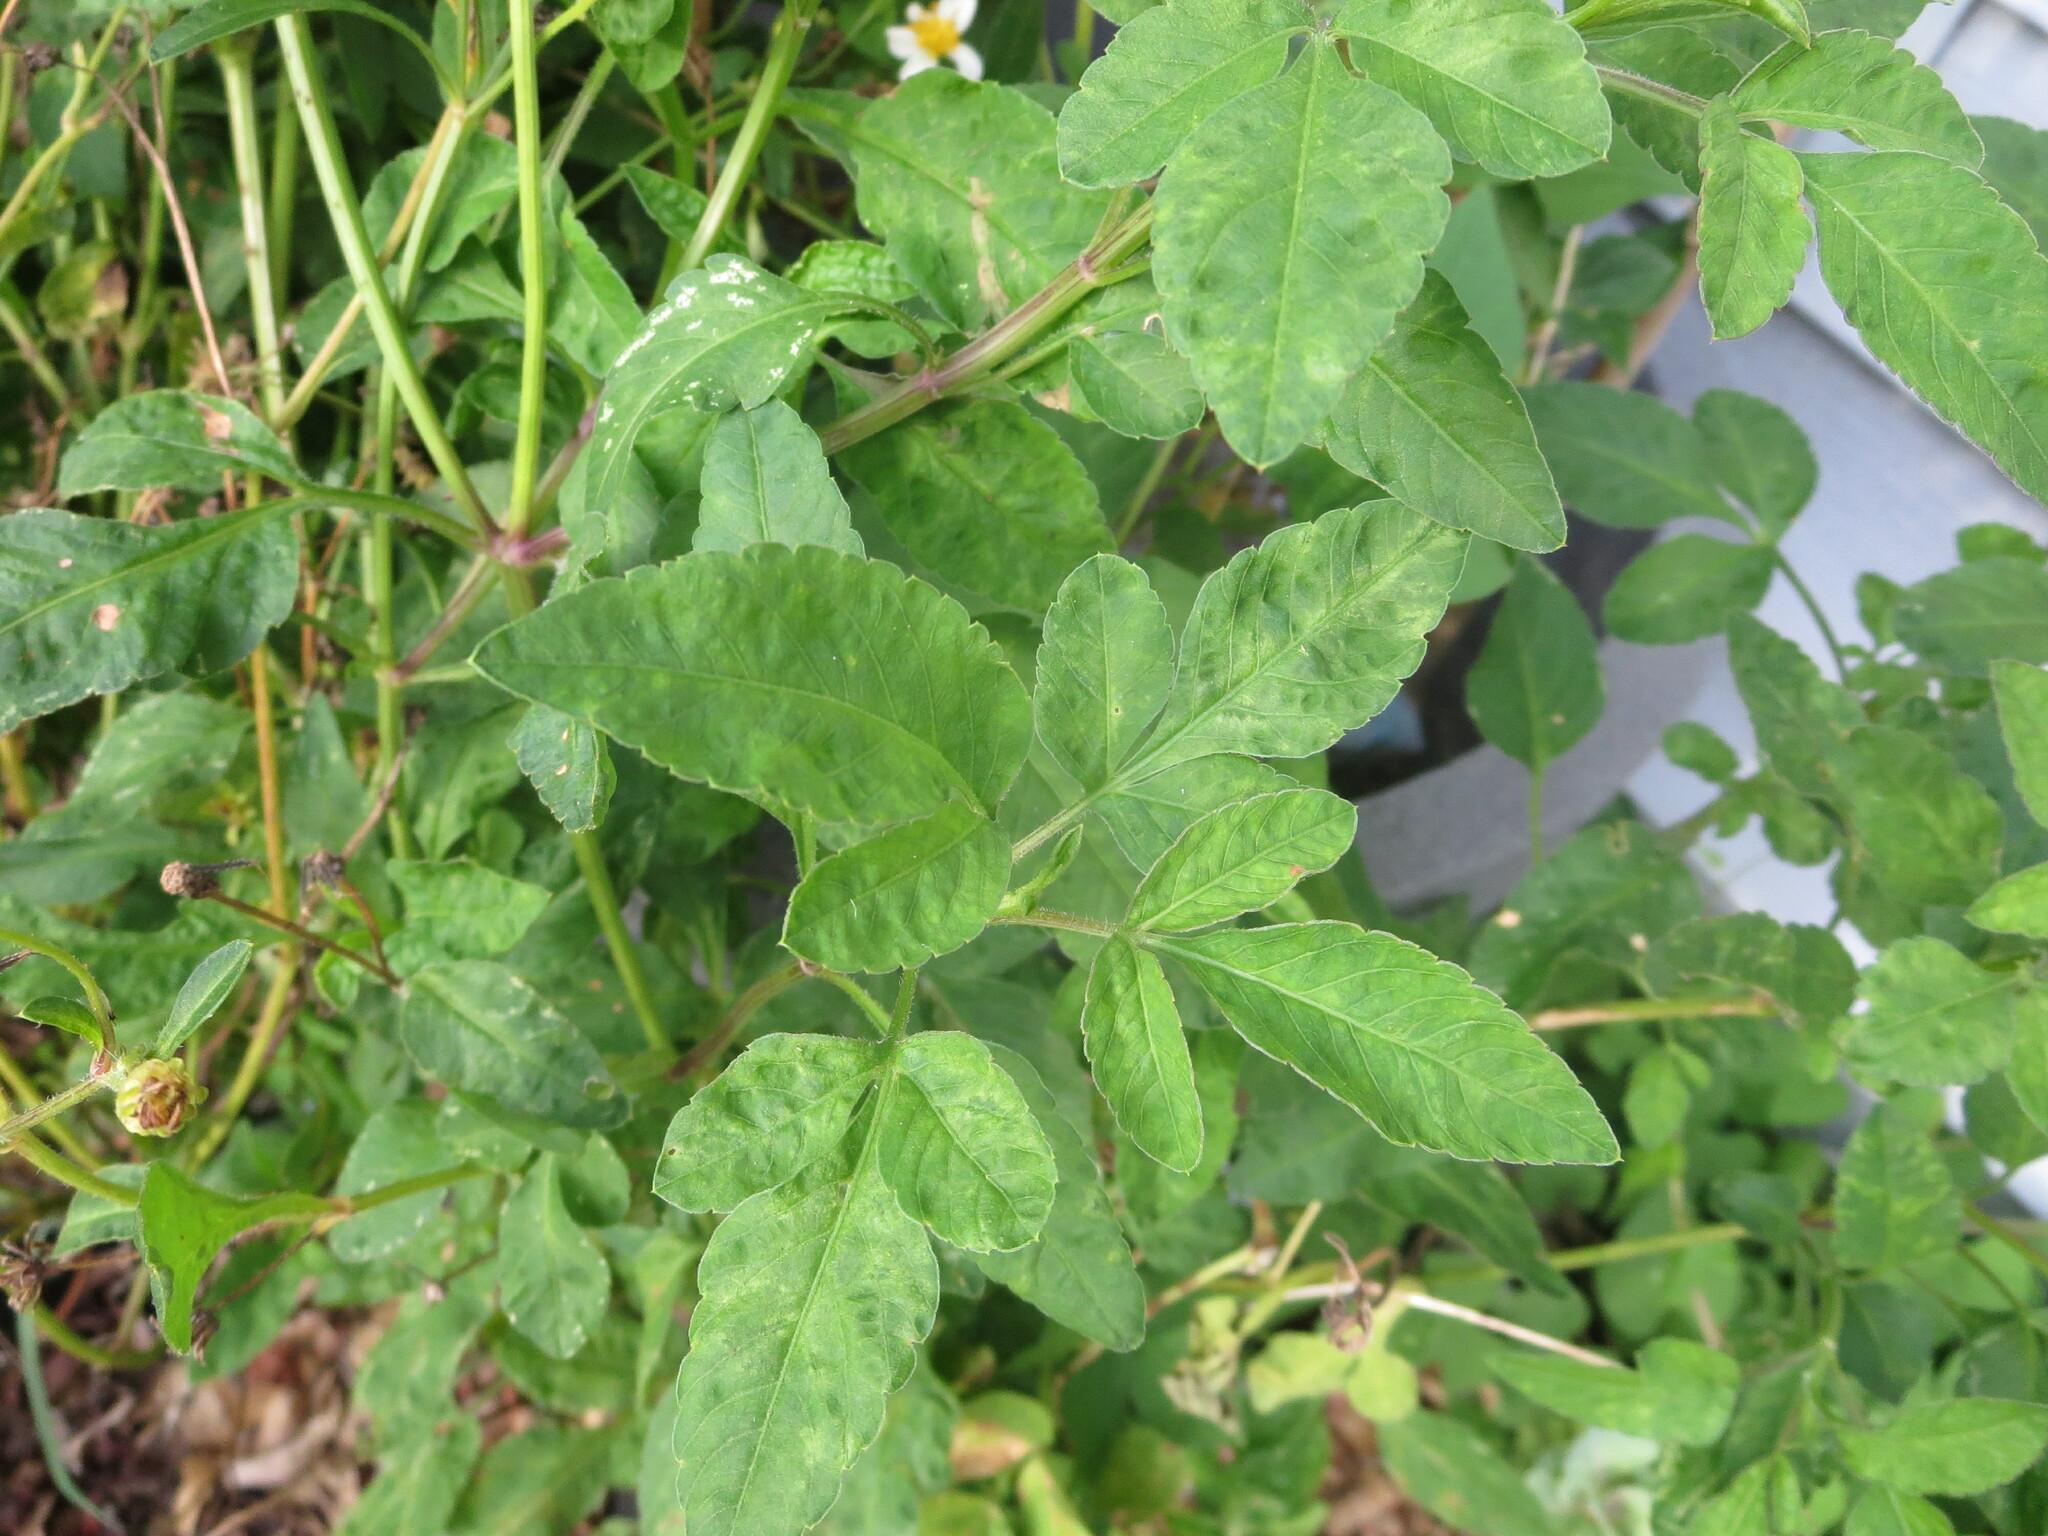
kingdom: Plantae
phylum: Tracheophyta
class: Magnoliopsida
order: Asterales
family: Asteraceae
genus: Bidens
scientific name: Bidens alba
